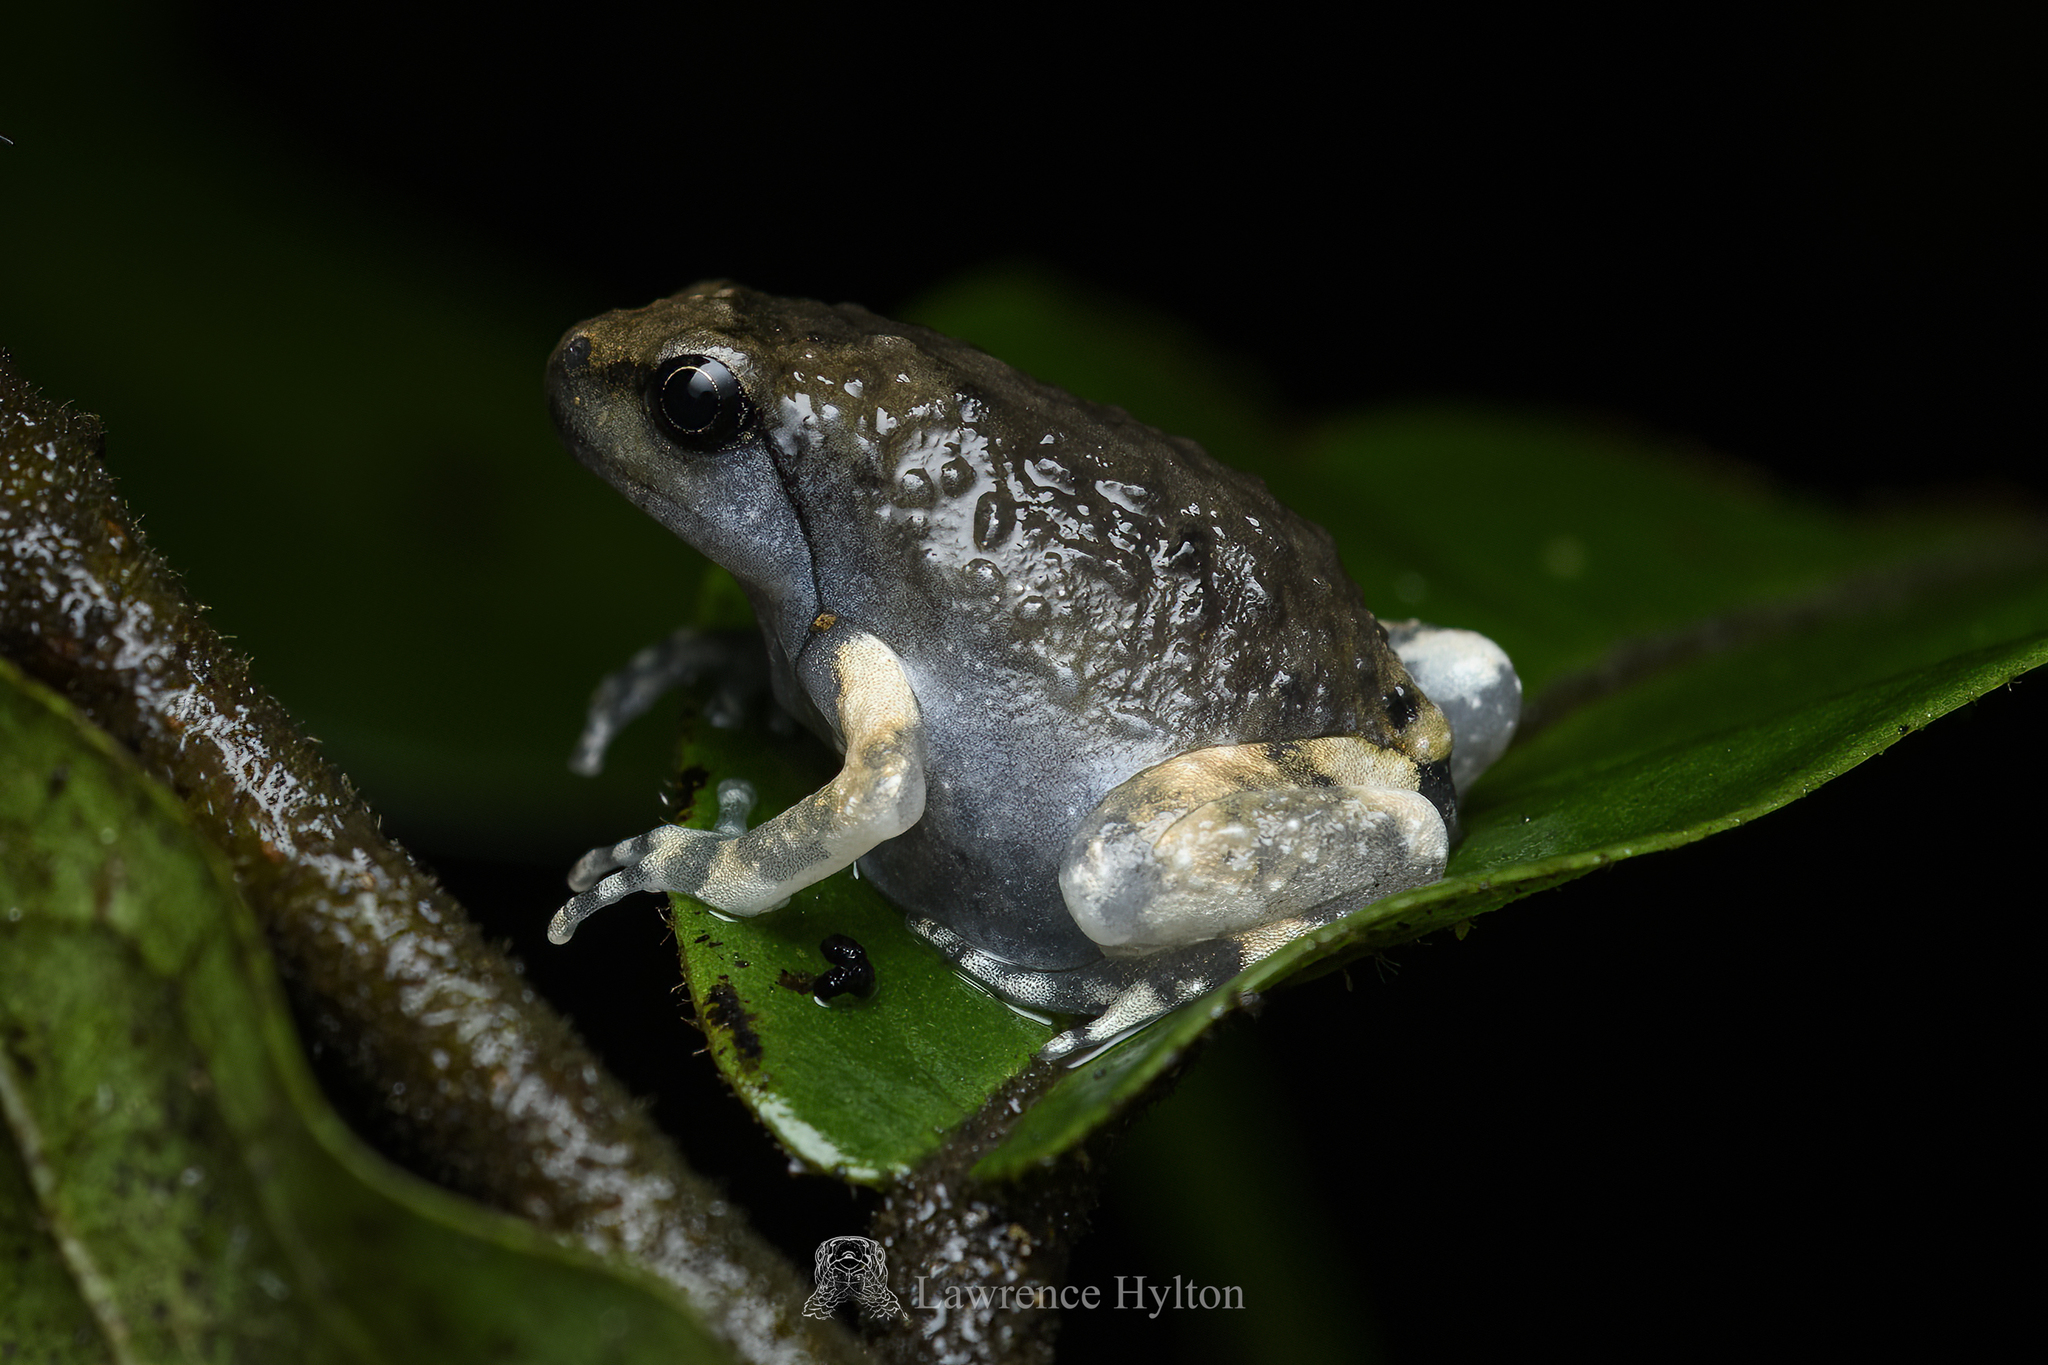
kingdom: Animalia
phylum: Chordata
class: Amphibia
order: Anura
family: Microhylidae
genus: Kaloula
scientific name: Kaloula pulchra
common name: Common,banded bullfrog
